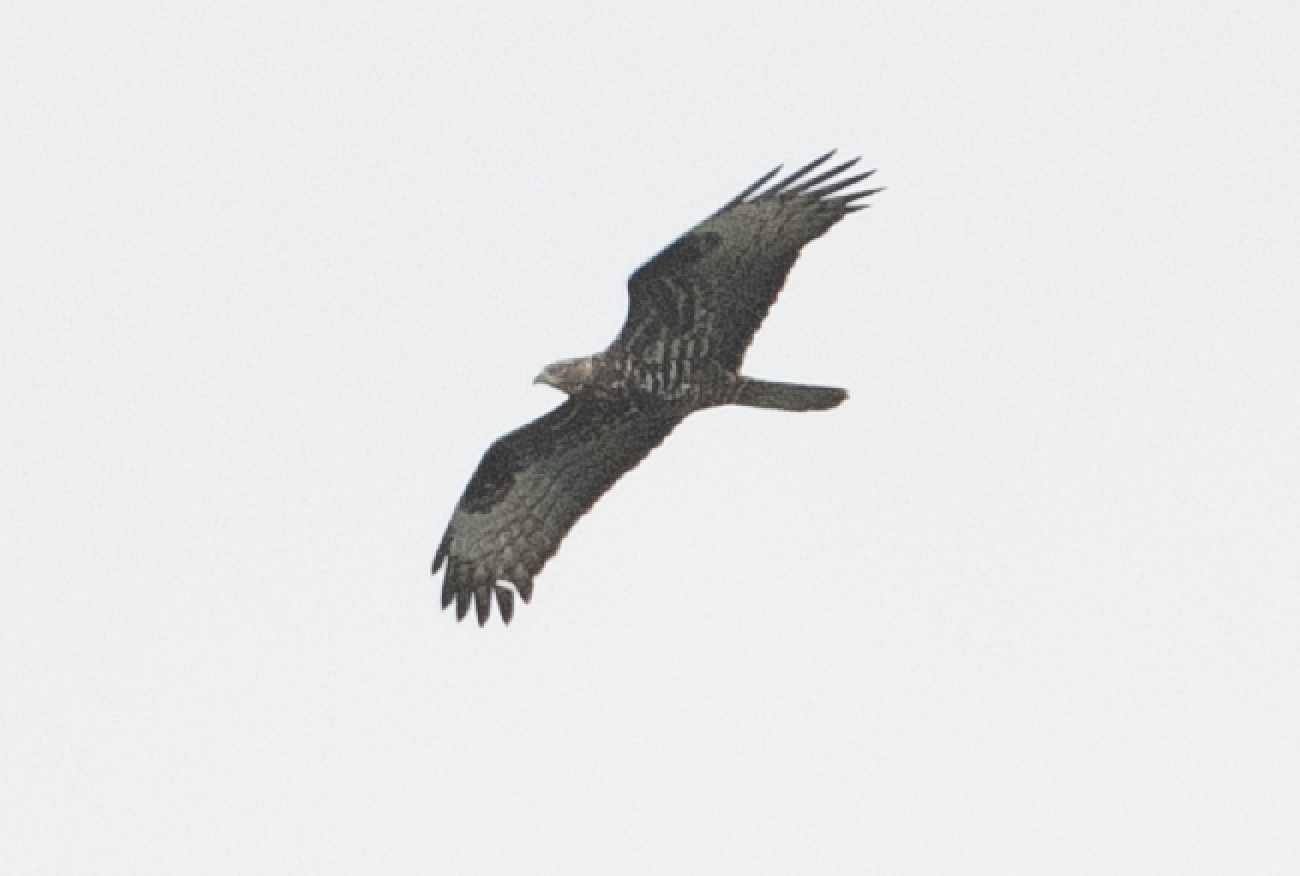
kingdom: Animalia
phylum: Chordata
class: Aves
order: Accipitriformes
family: Accipitridae
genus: Pernis
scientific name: Pernis apivorus
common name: European honey buzzard
